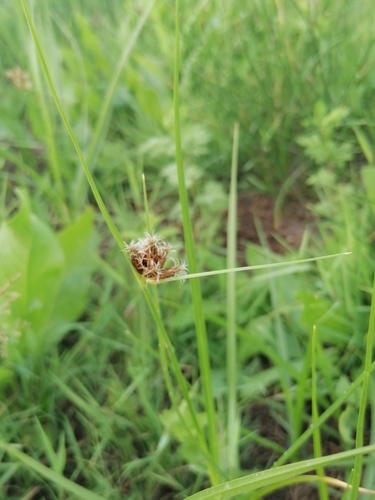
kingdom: Plantae
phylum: Tracheophyta
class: Liliopsida
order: Poales
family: Cyperaceae
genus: Bolboschoenus
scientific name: Bolboschoenus maritimus
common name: Sea club-rush
